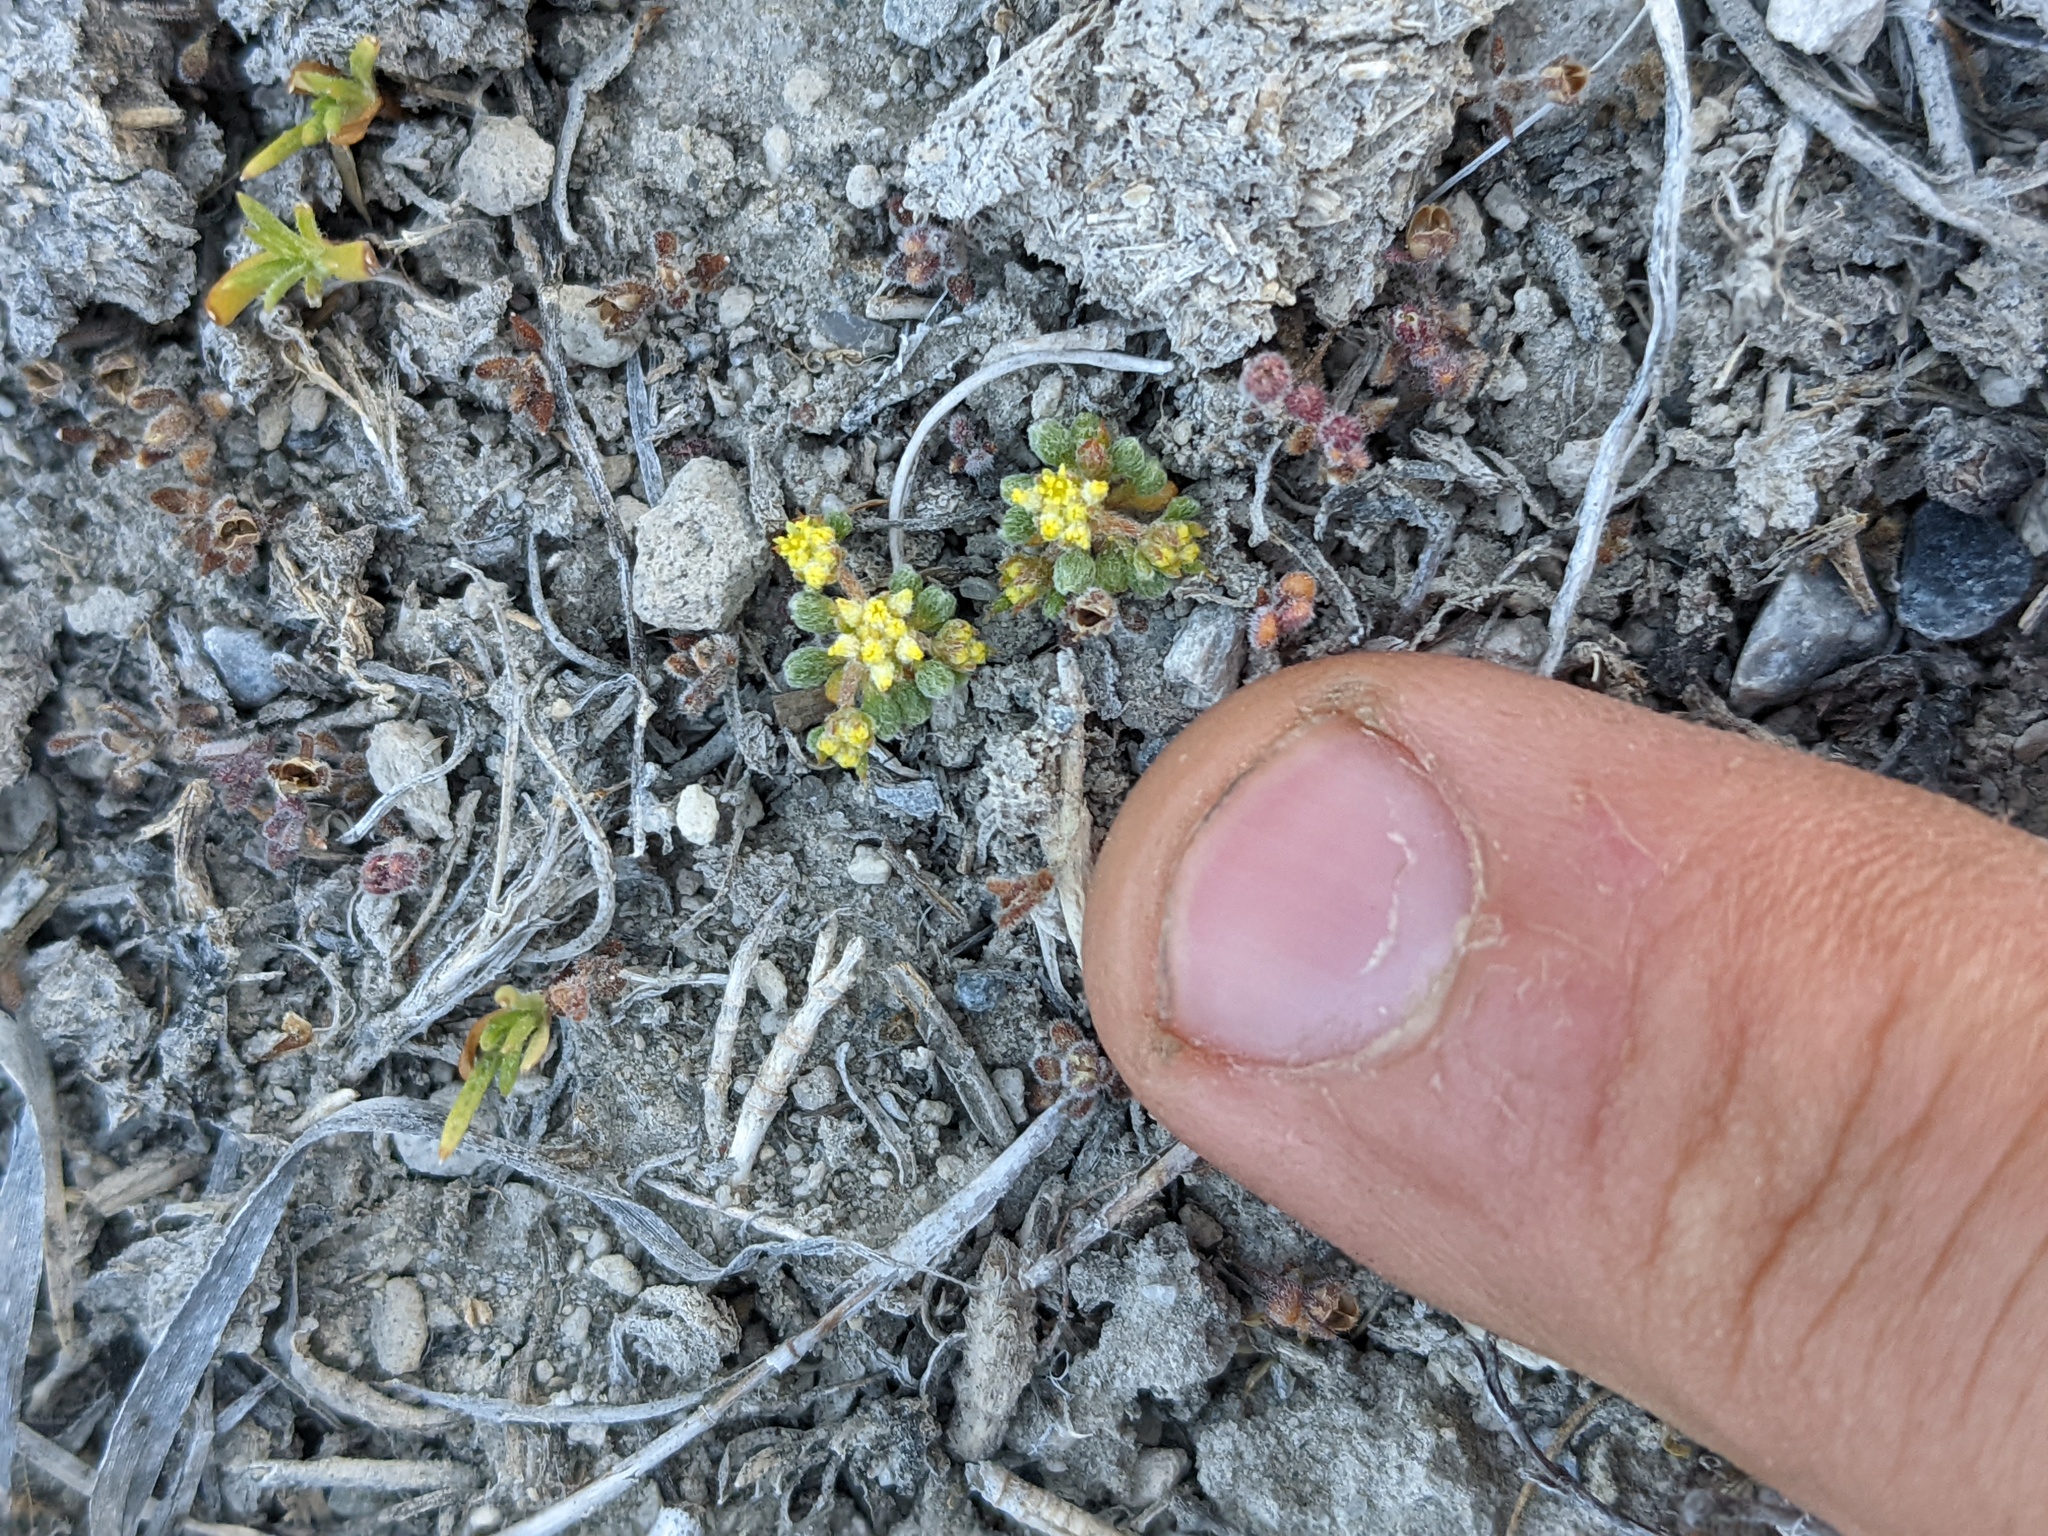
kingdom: Plantae
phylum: Tracheophyta
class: Magnoliopsida
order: Caryophyllales
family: Polygonaceae
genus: Goodmania
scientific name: Goodmania luteola
